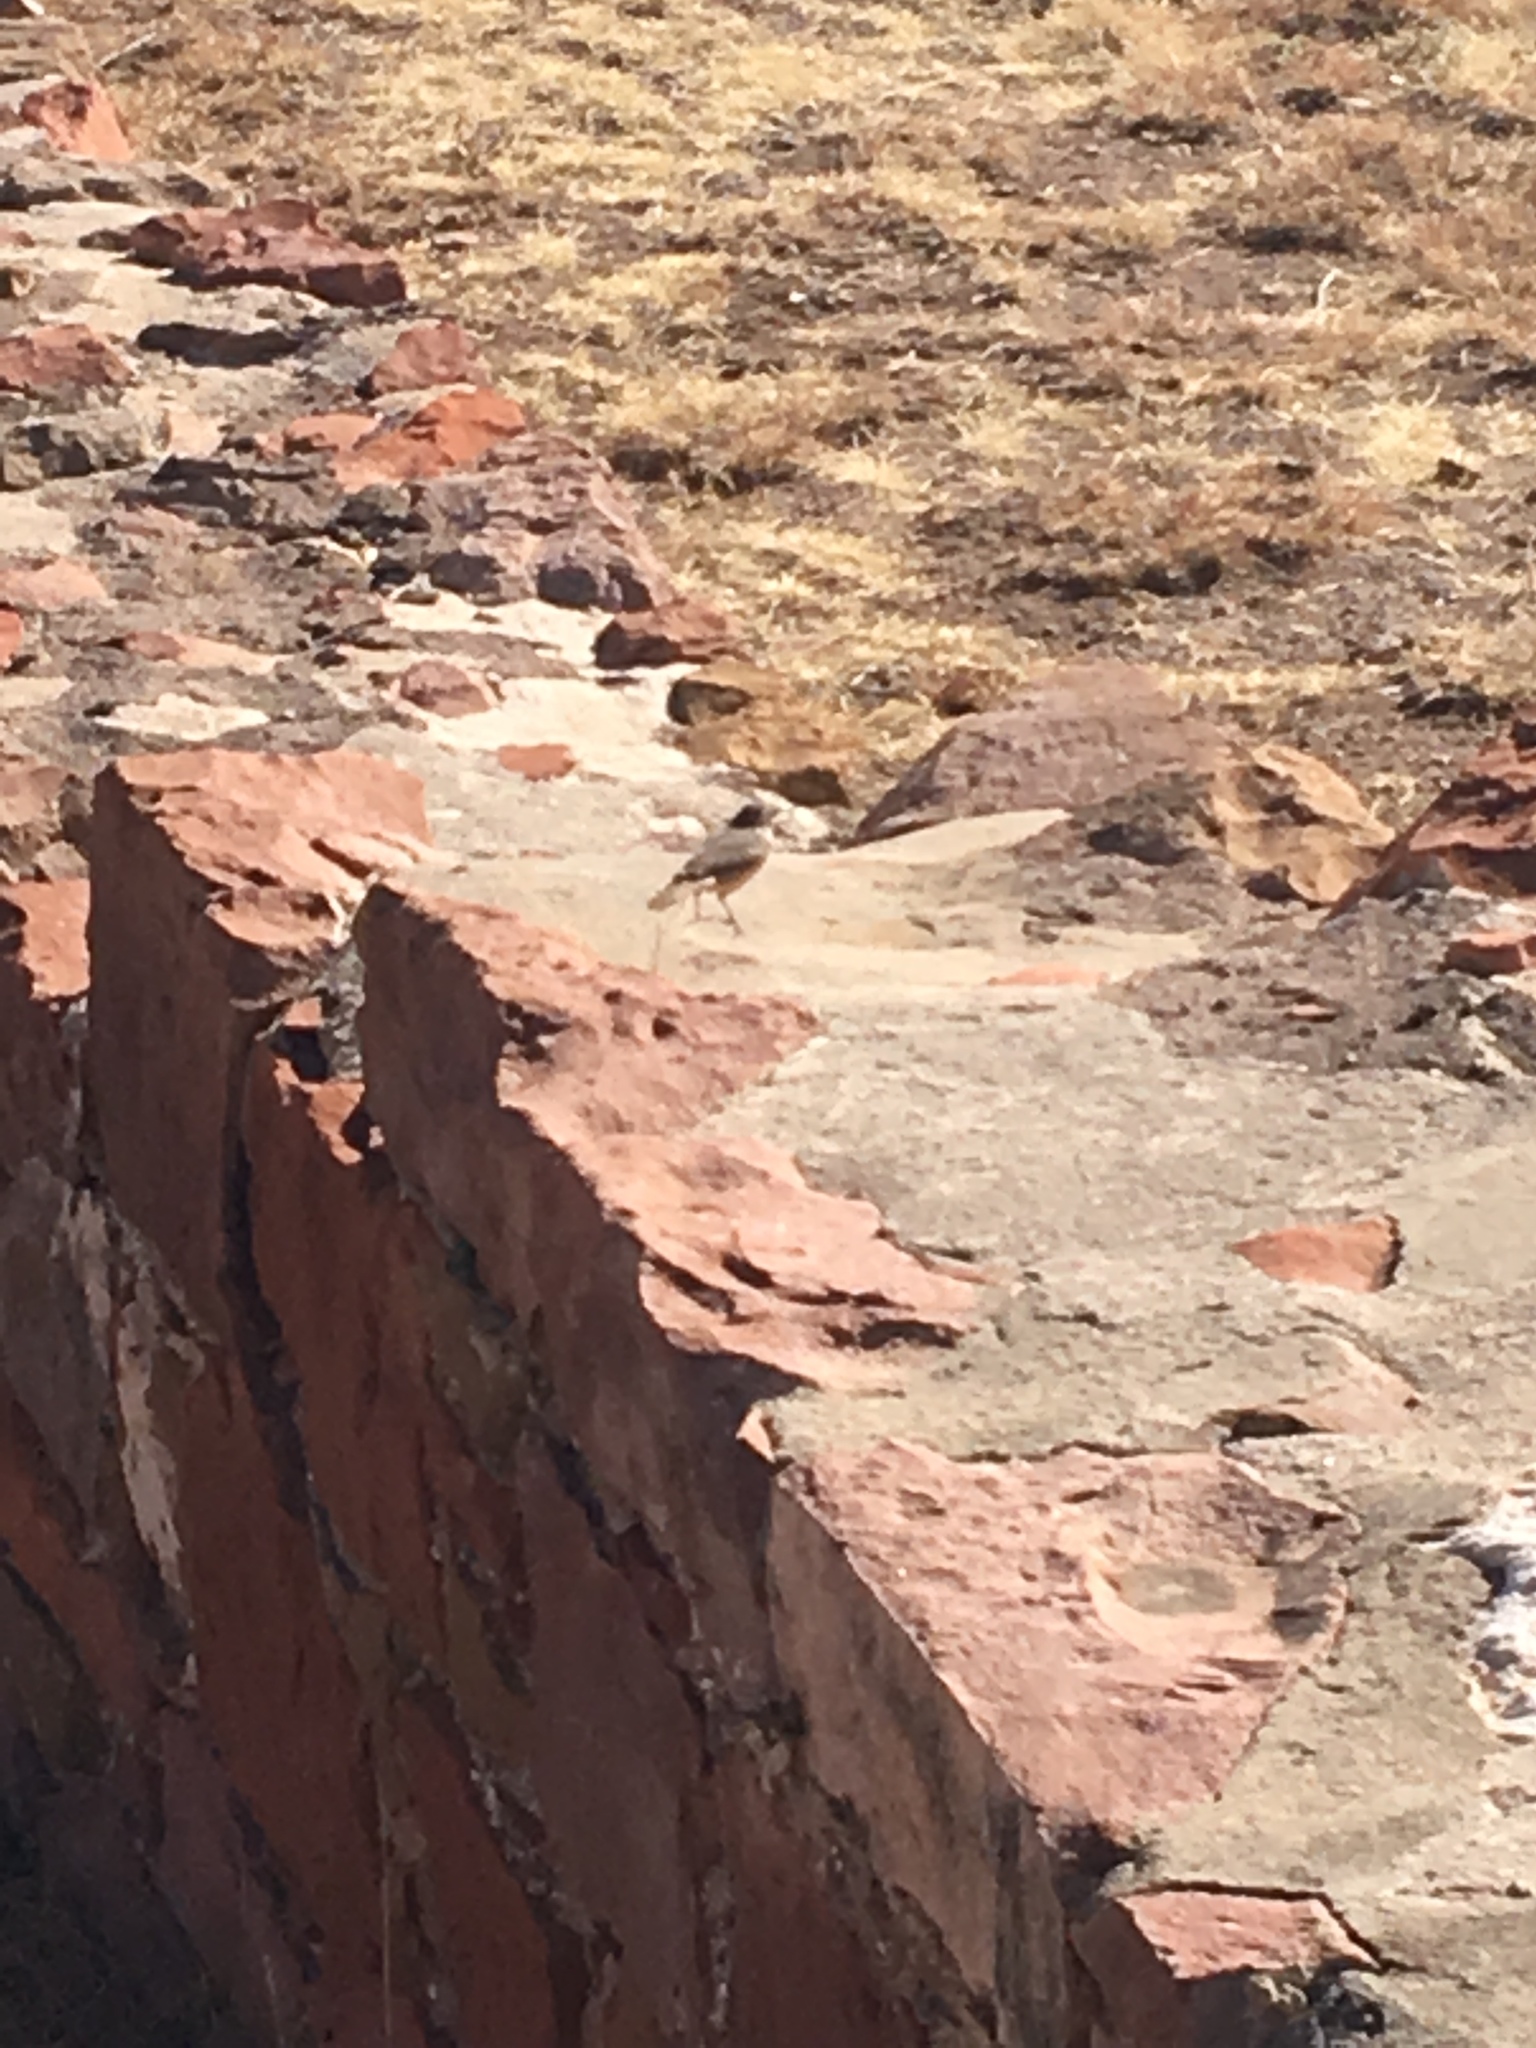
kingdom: Animalia
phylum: Chordata
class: Aves
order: Passeriformes
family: Troglodytidae
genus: Salpinctes
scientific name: Salpinctes obsoletus
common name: Rock wren
